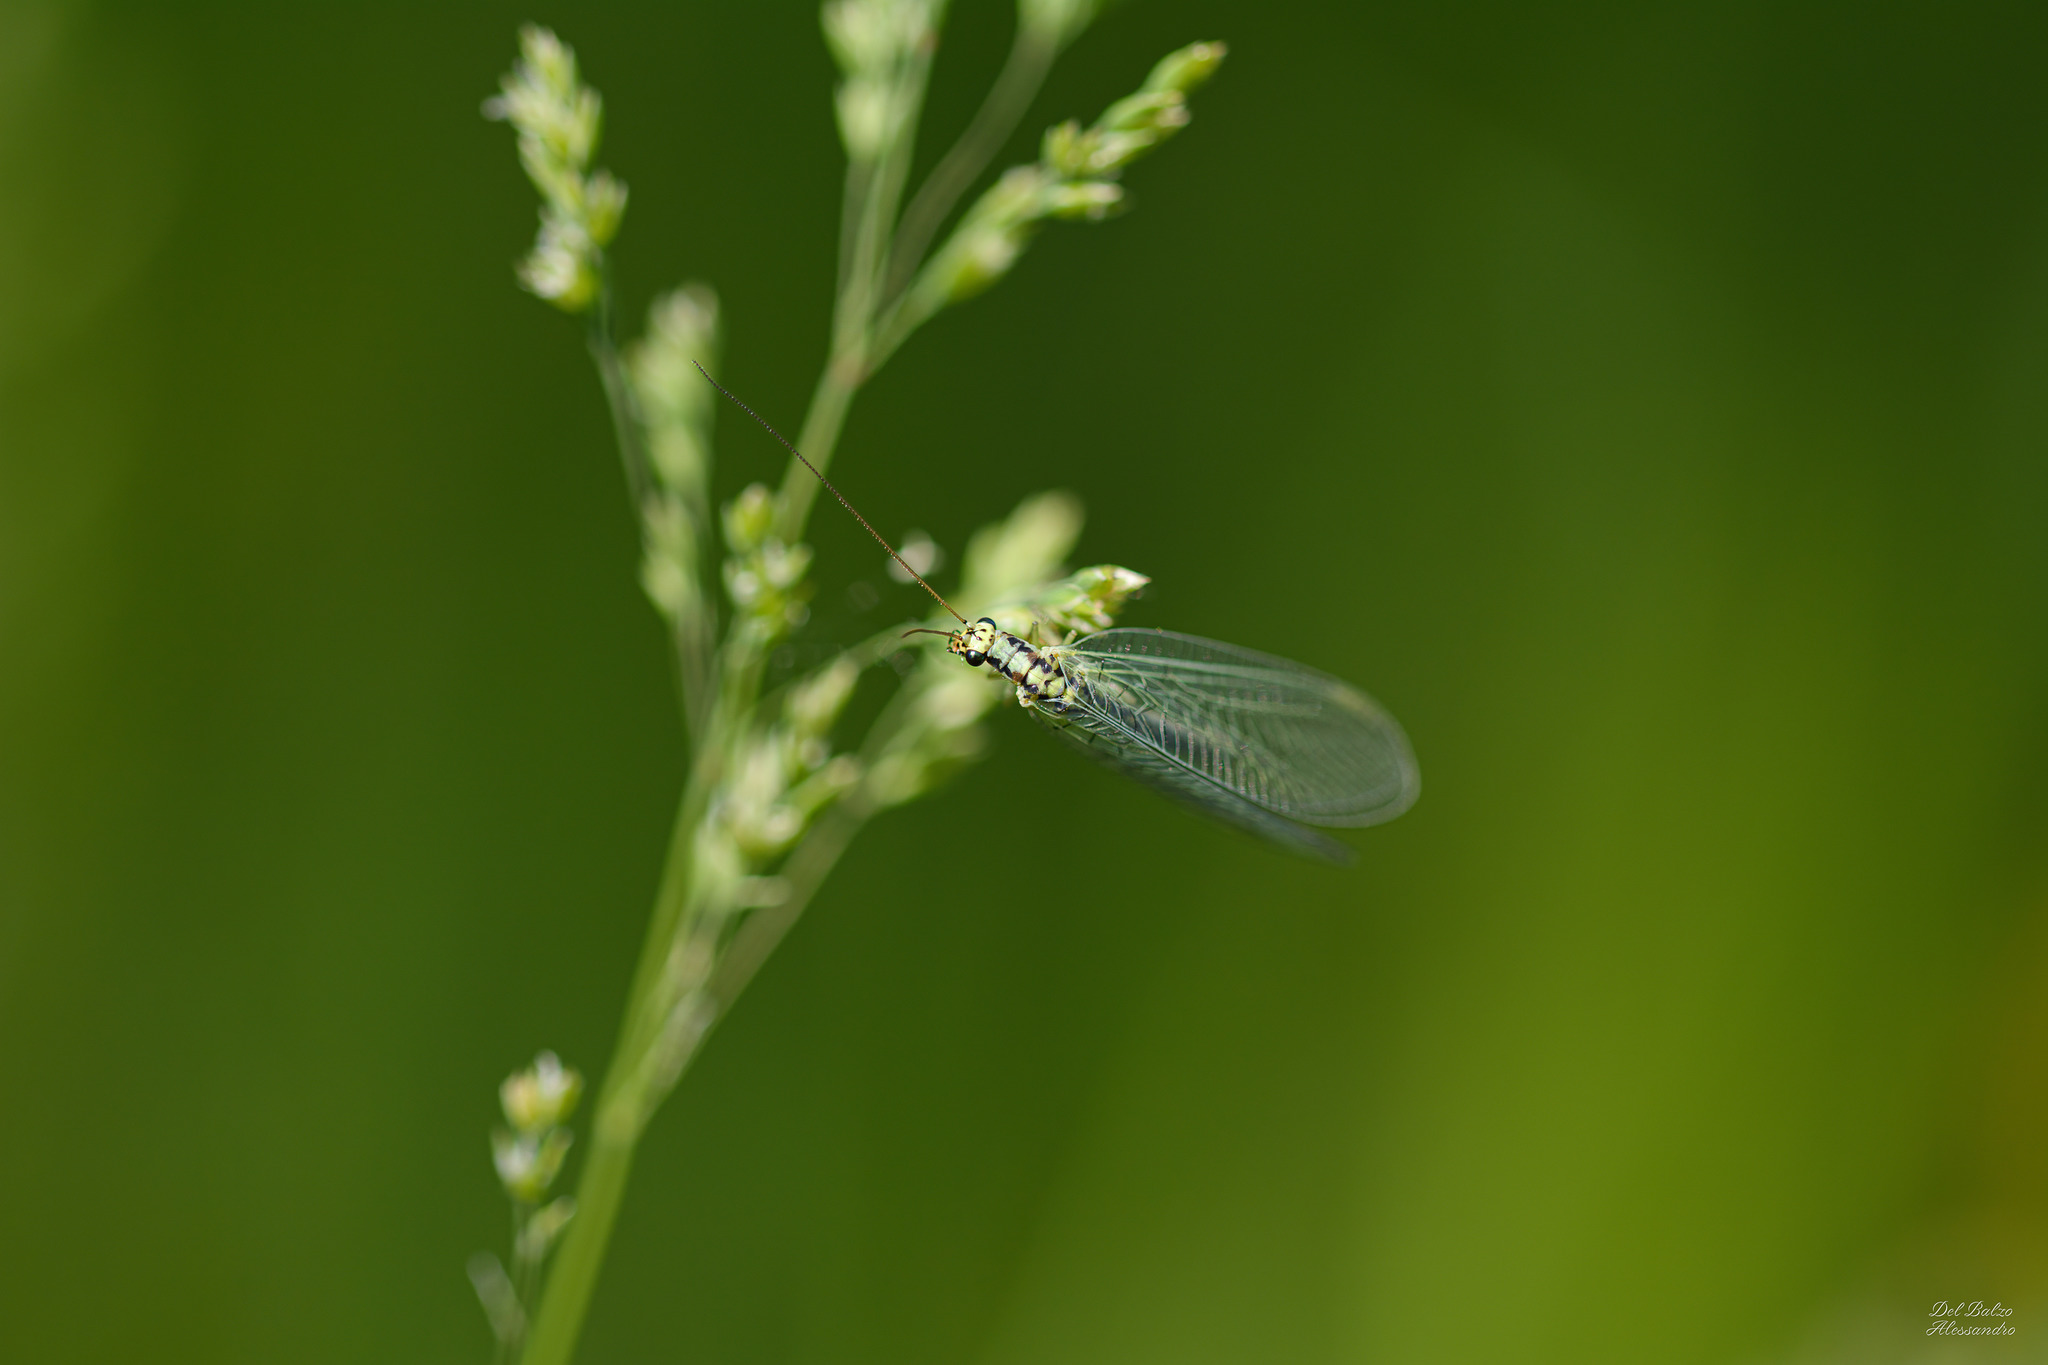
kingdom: Animalia
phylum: Arthropoda
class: Insecta
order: Neuroptera
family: Chrysopidae
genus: Chrysopa
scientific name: Chrysopa walkeri
